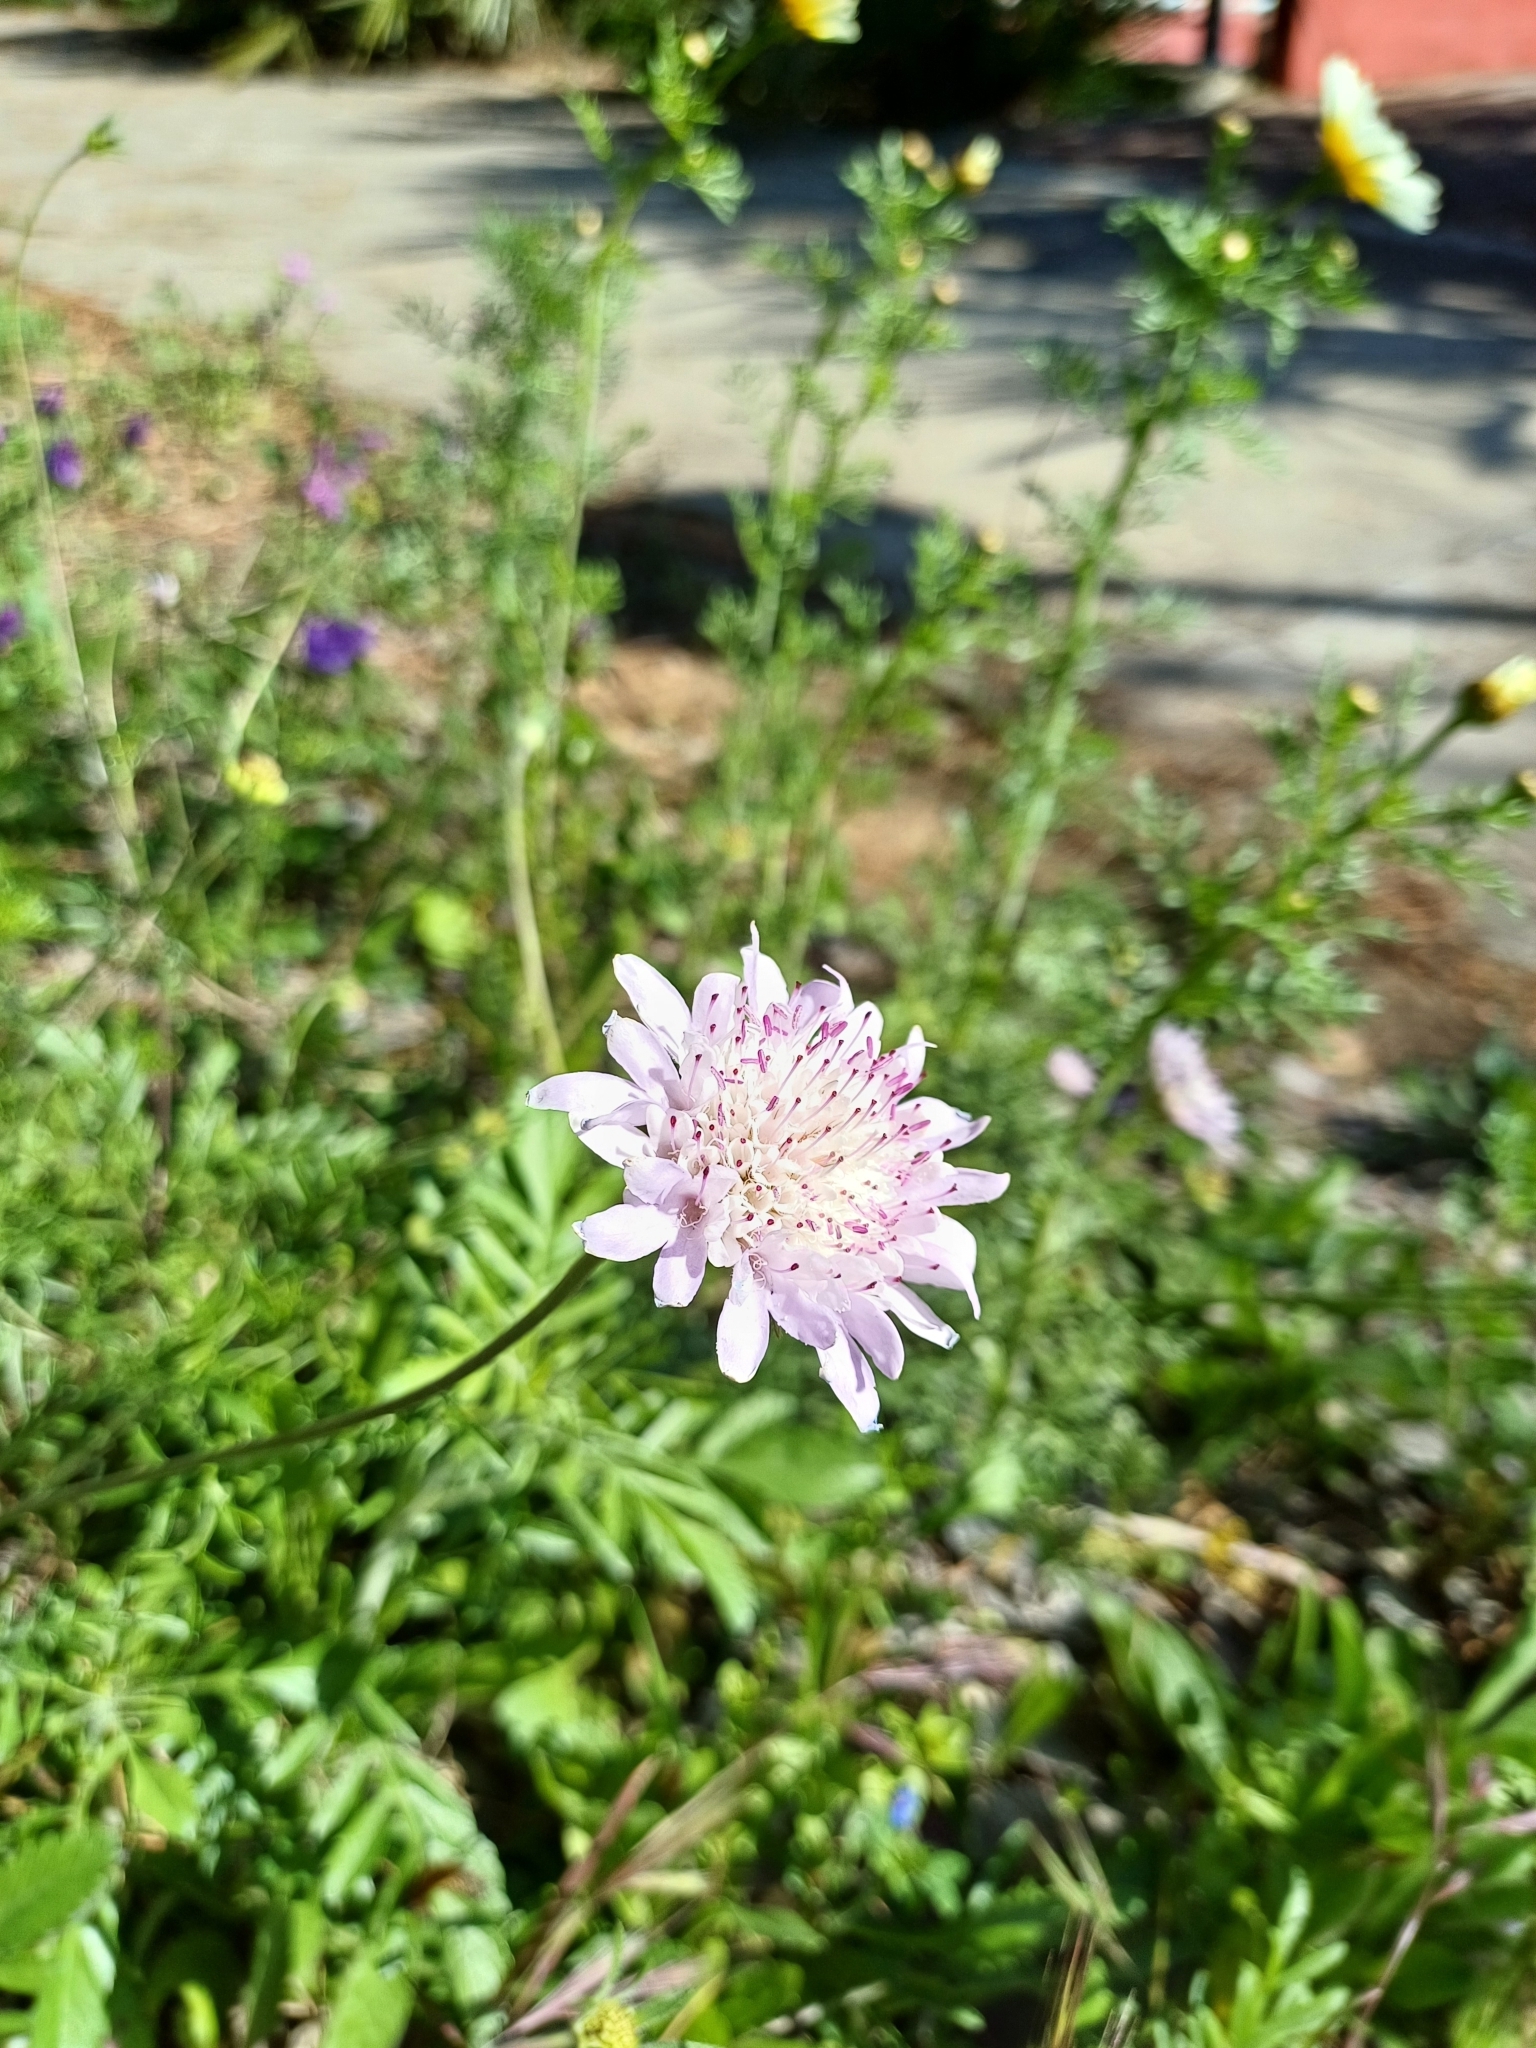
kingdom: Plantae
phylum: Tracheophyta
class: Magnoliopsida
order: Dipsacales
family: Caprifoliaceae
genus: Sixalix
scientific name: Sixalix atropurpurea
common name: Sweet scabious
